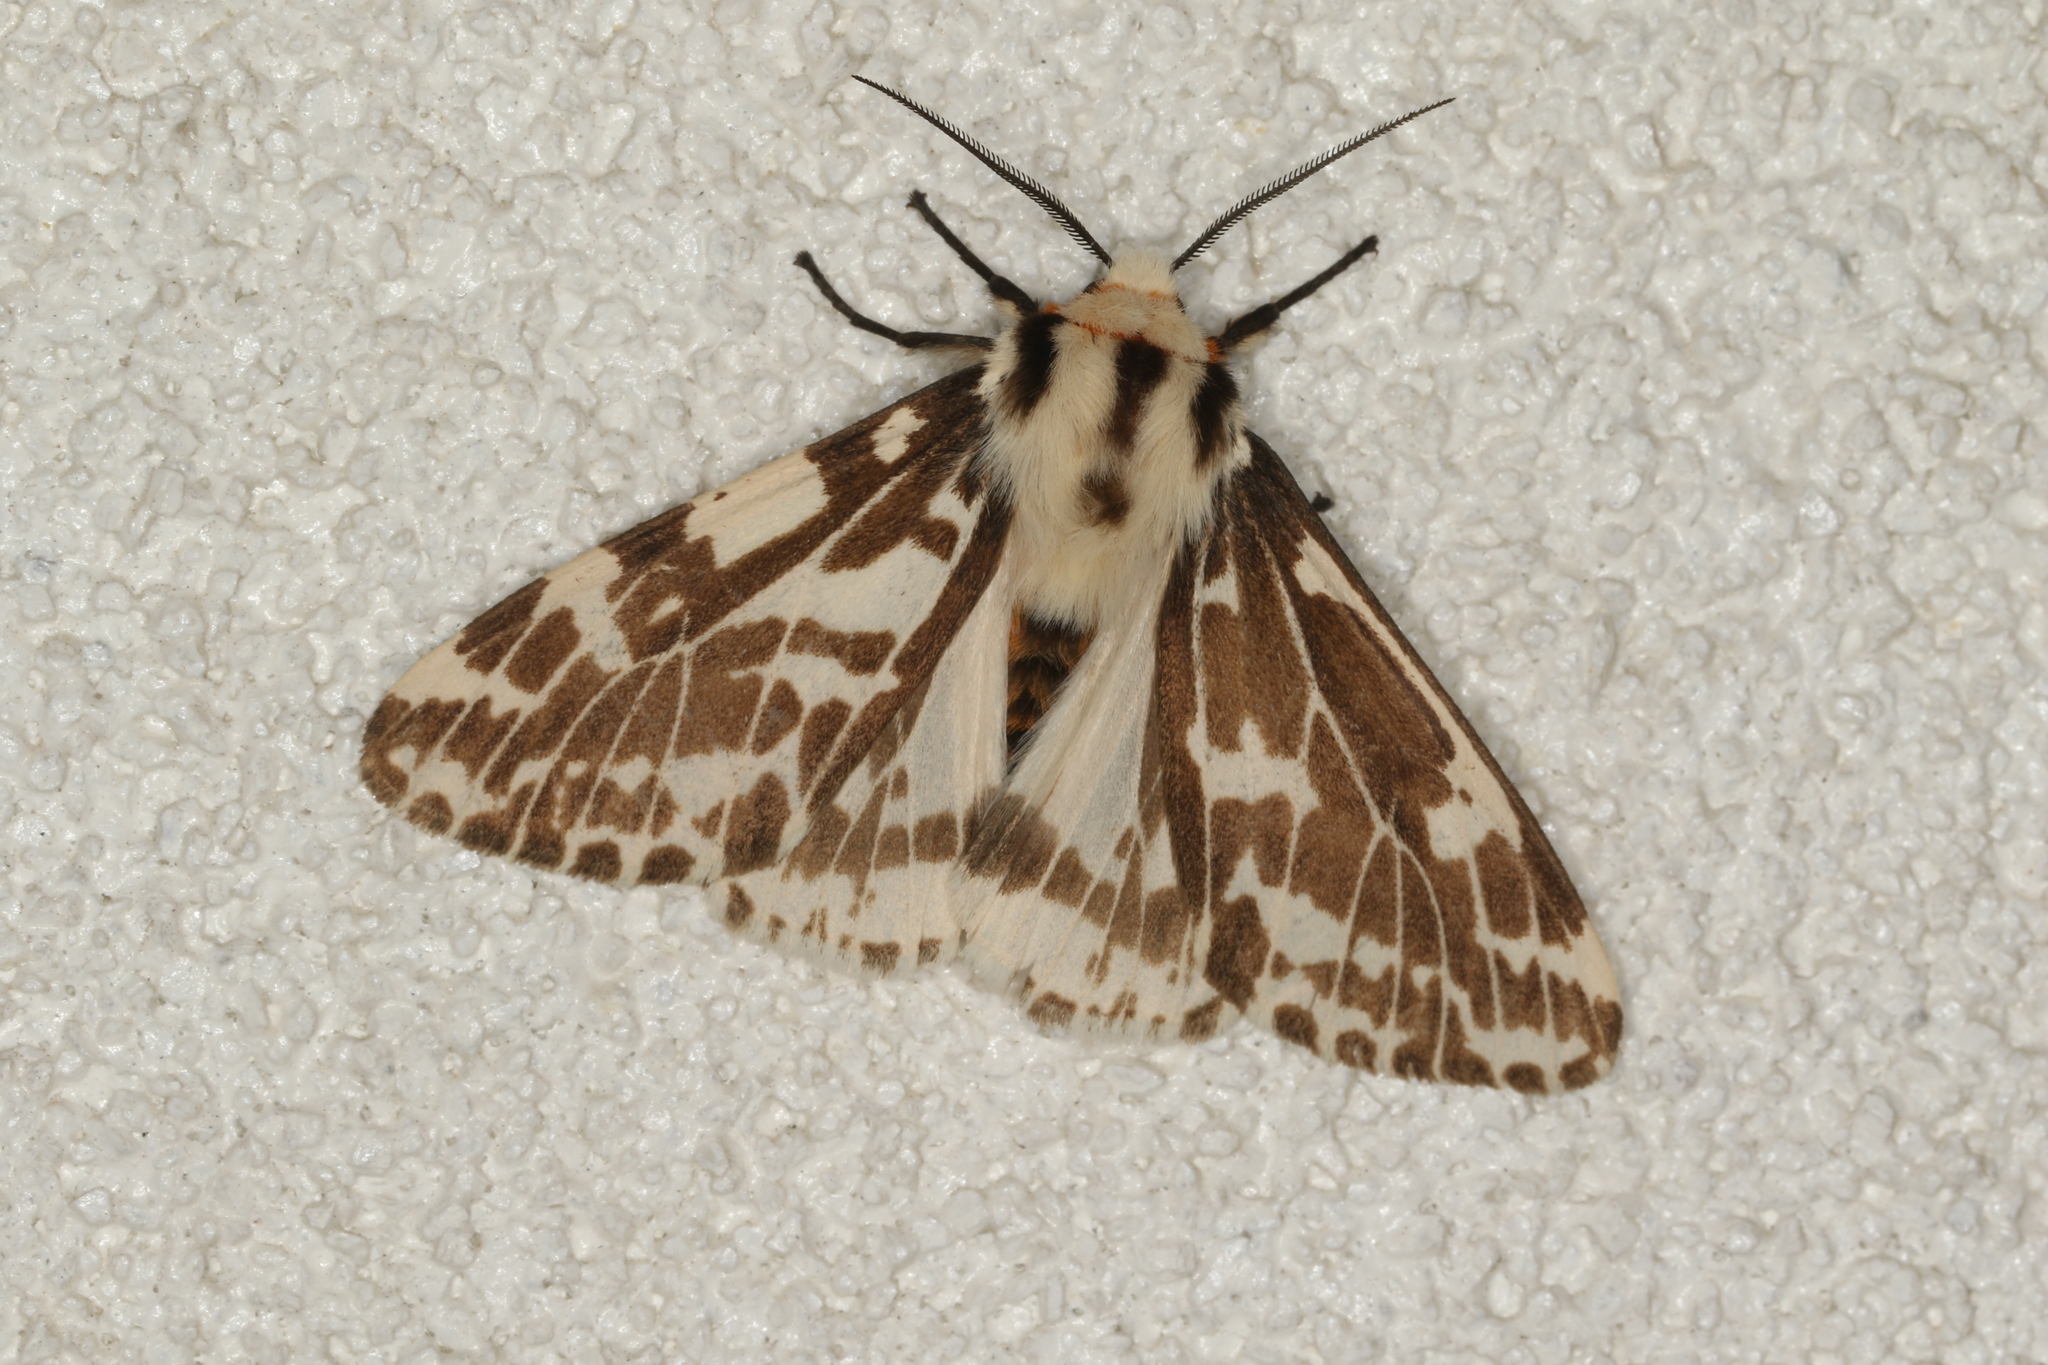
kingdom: Animalia
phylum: Arthropoda
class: Insecta
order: Lepidoptera
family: Erebidae
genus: Ardices
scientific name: Ardices glatignyi
